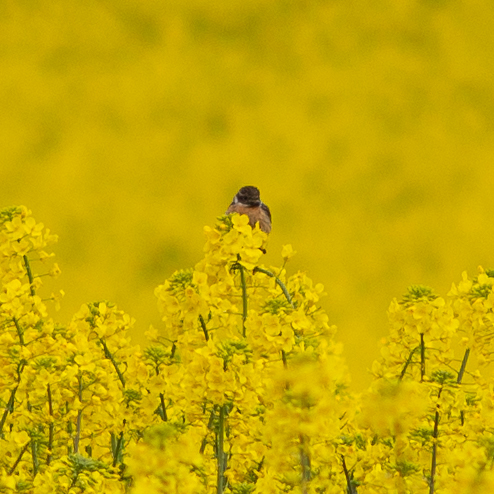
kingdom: Animalia
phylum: Chordata
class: Aves
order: Passeriformes
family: Muscicapidae
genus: Saxicola
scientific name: Saxicola rubicola
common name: European stonechat
